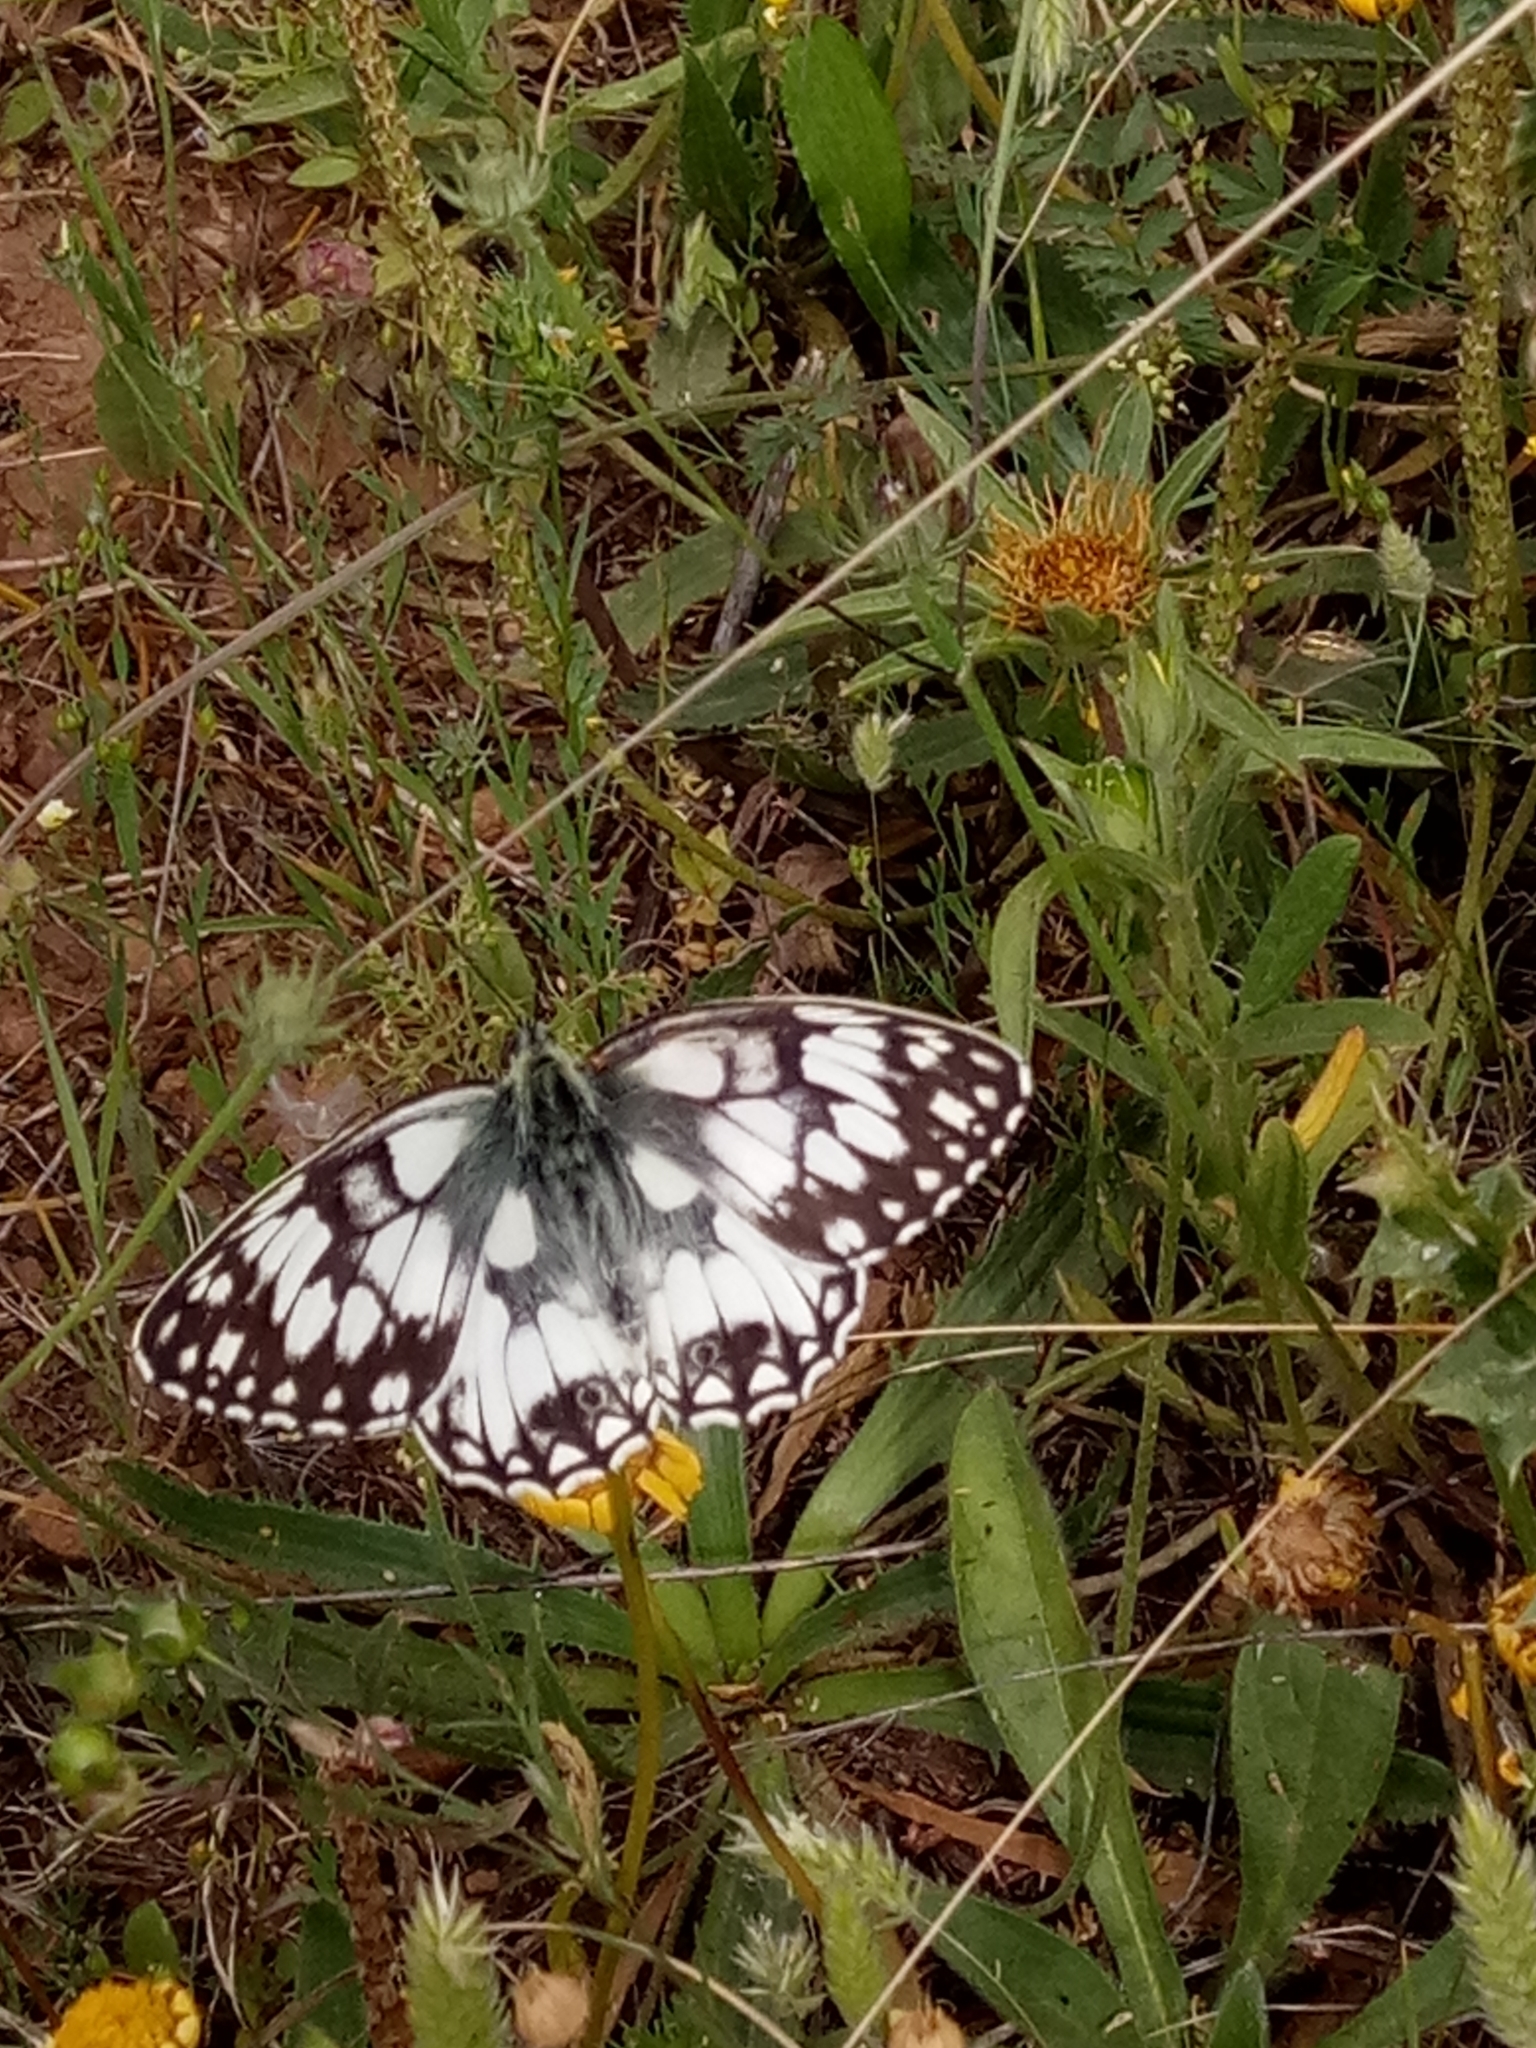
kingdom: Animalia
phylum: Arthropoda
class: Insecta
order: Lepidoptera
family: Nymphalidae
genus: Melanargia
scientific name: Melanargia lucasi
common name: Moroccan marbled white
